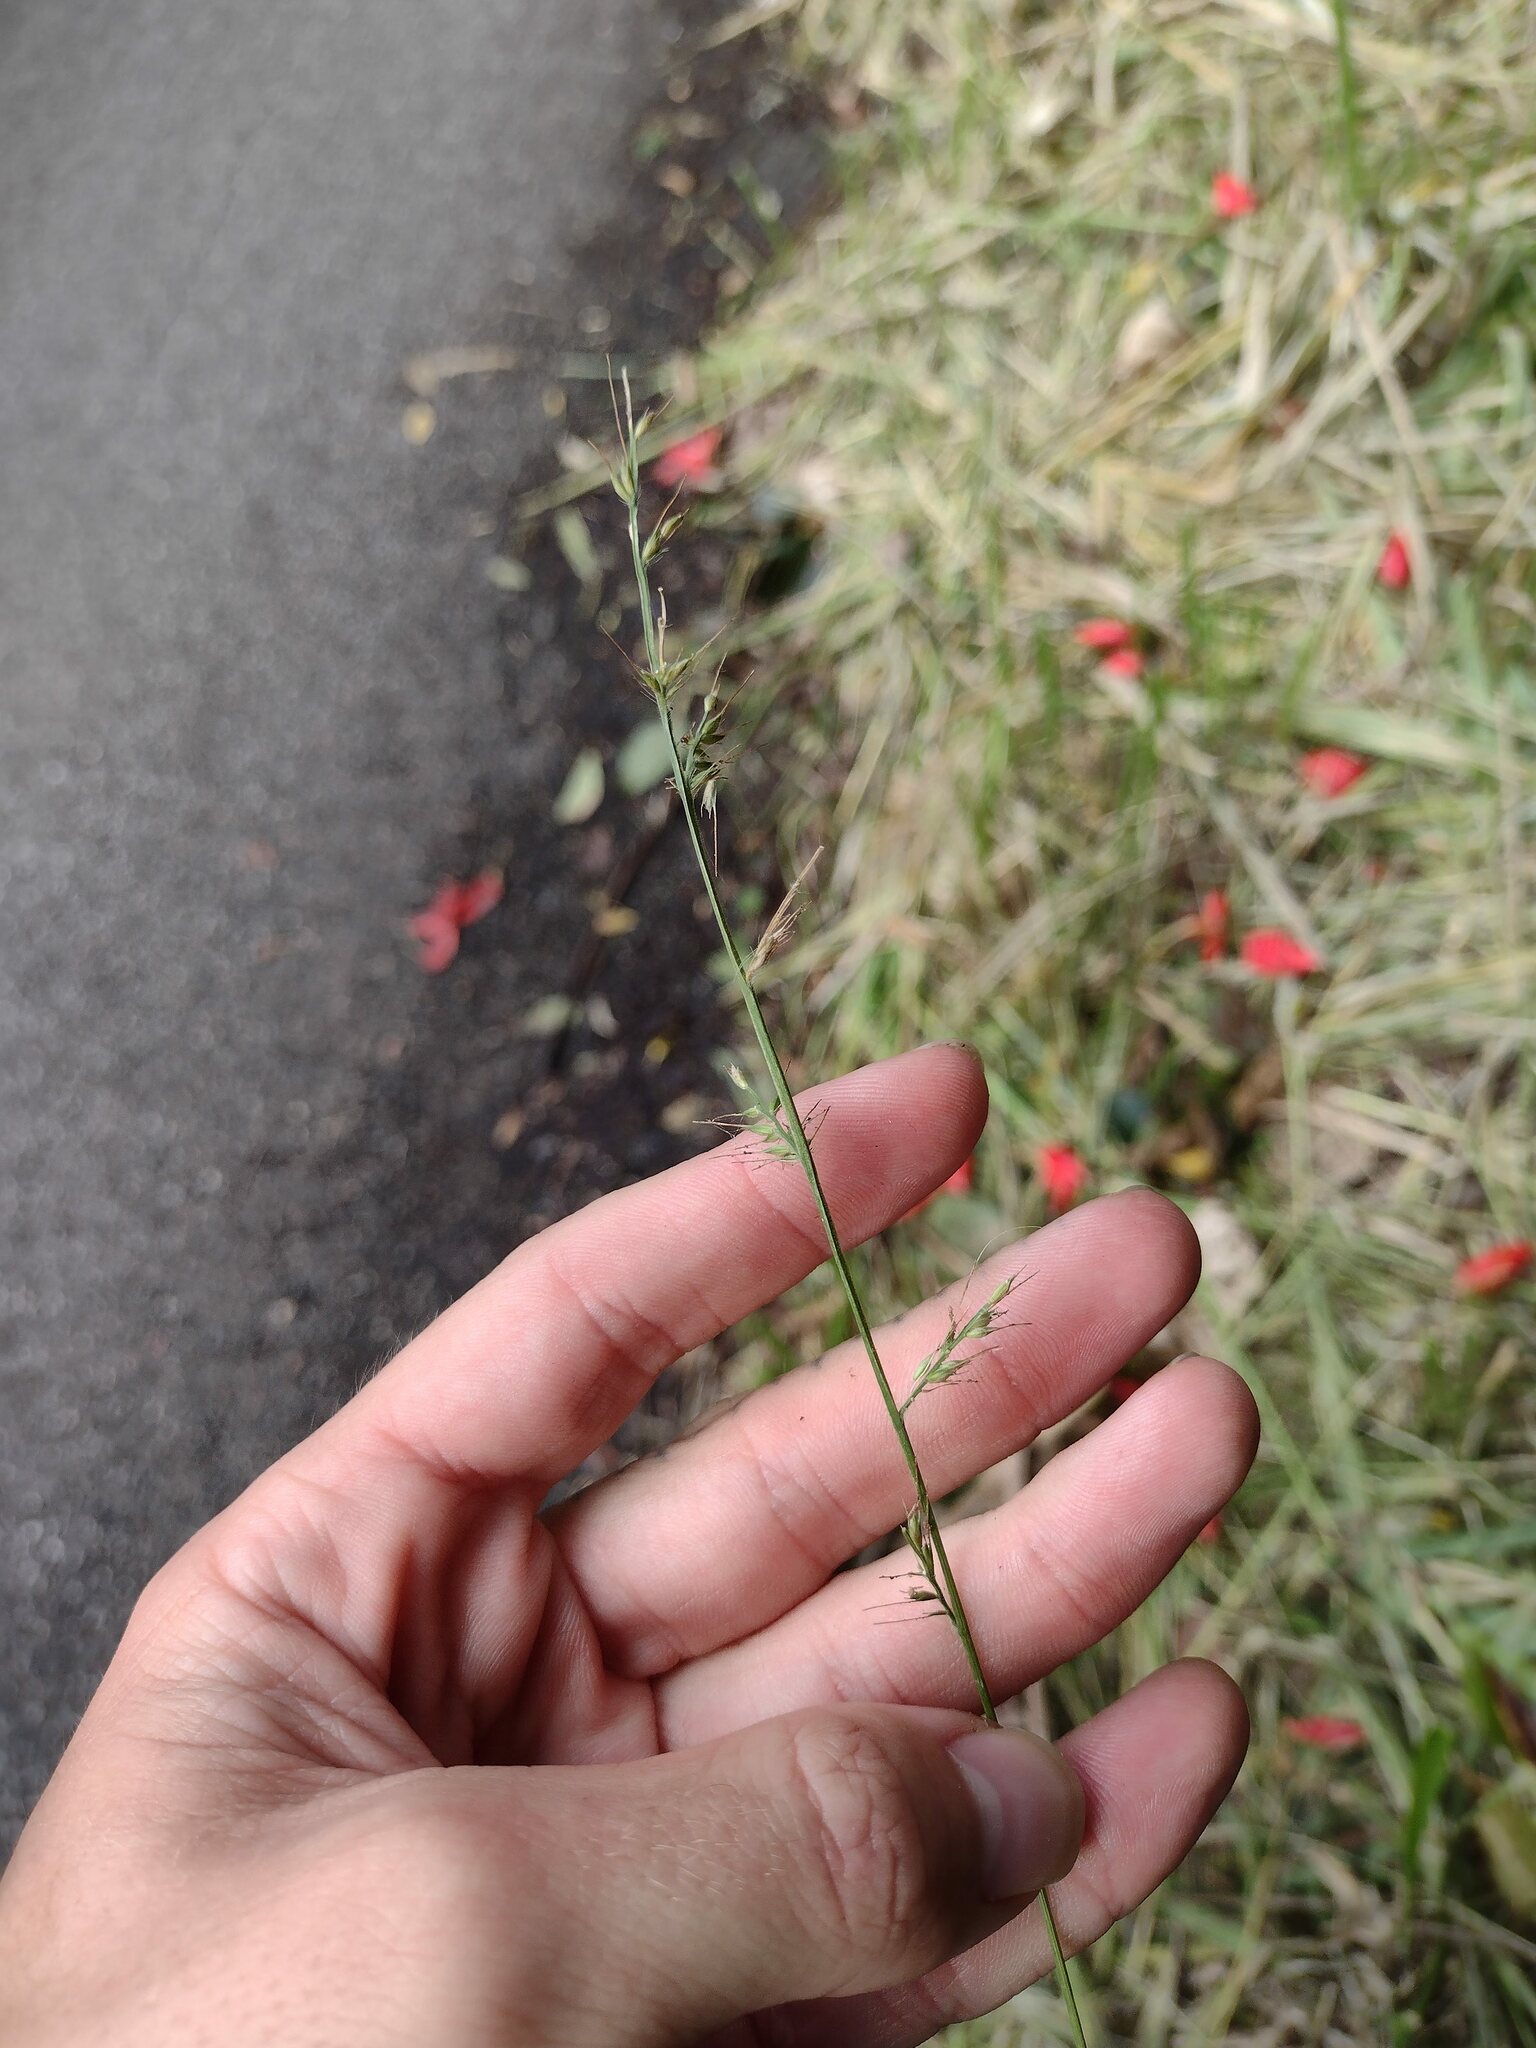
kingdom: Plantae
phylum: Tracheophyta
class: Liliopsida
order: Poales
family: Poaceae
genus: Oplismenus
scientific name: Oplismenus hirtellus
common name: Basketgrass
